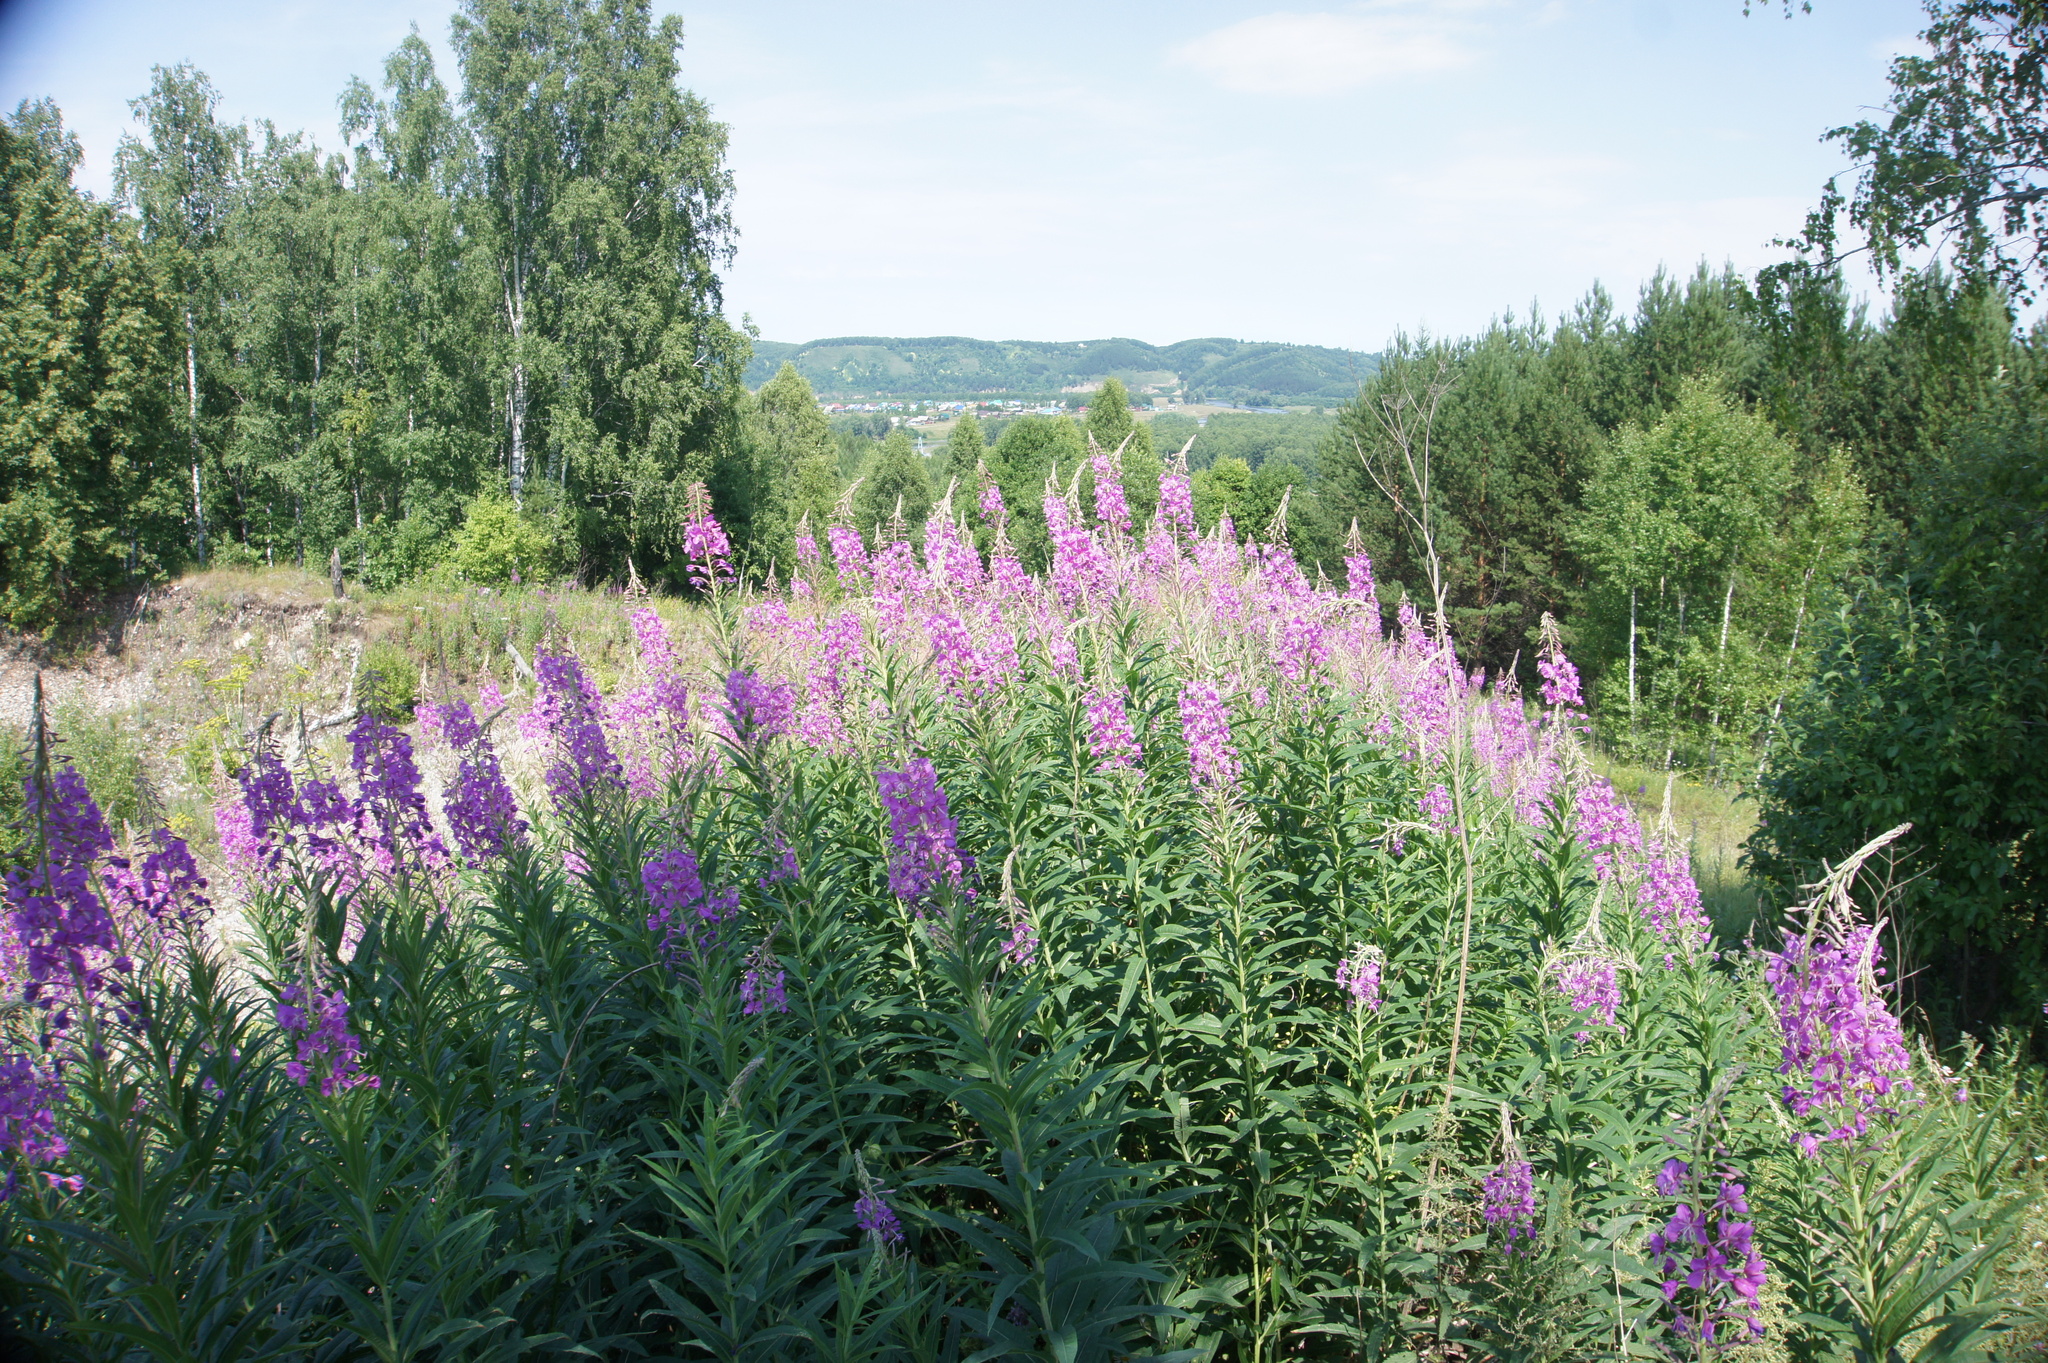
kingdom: Plantae
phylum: Tracheophyta
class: Magnoliopsida
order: Myrtales
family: Onagraceae
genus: Chamaenerion
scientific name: Chamaenerion angustifolium
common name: Fireweed
